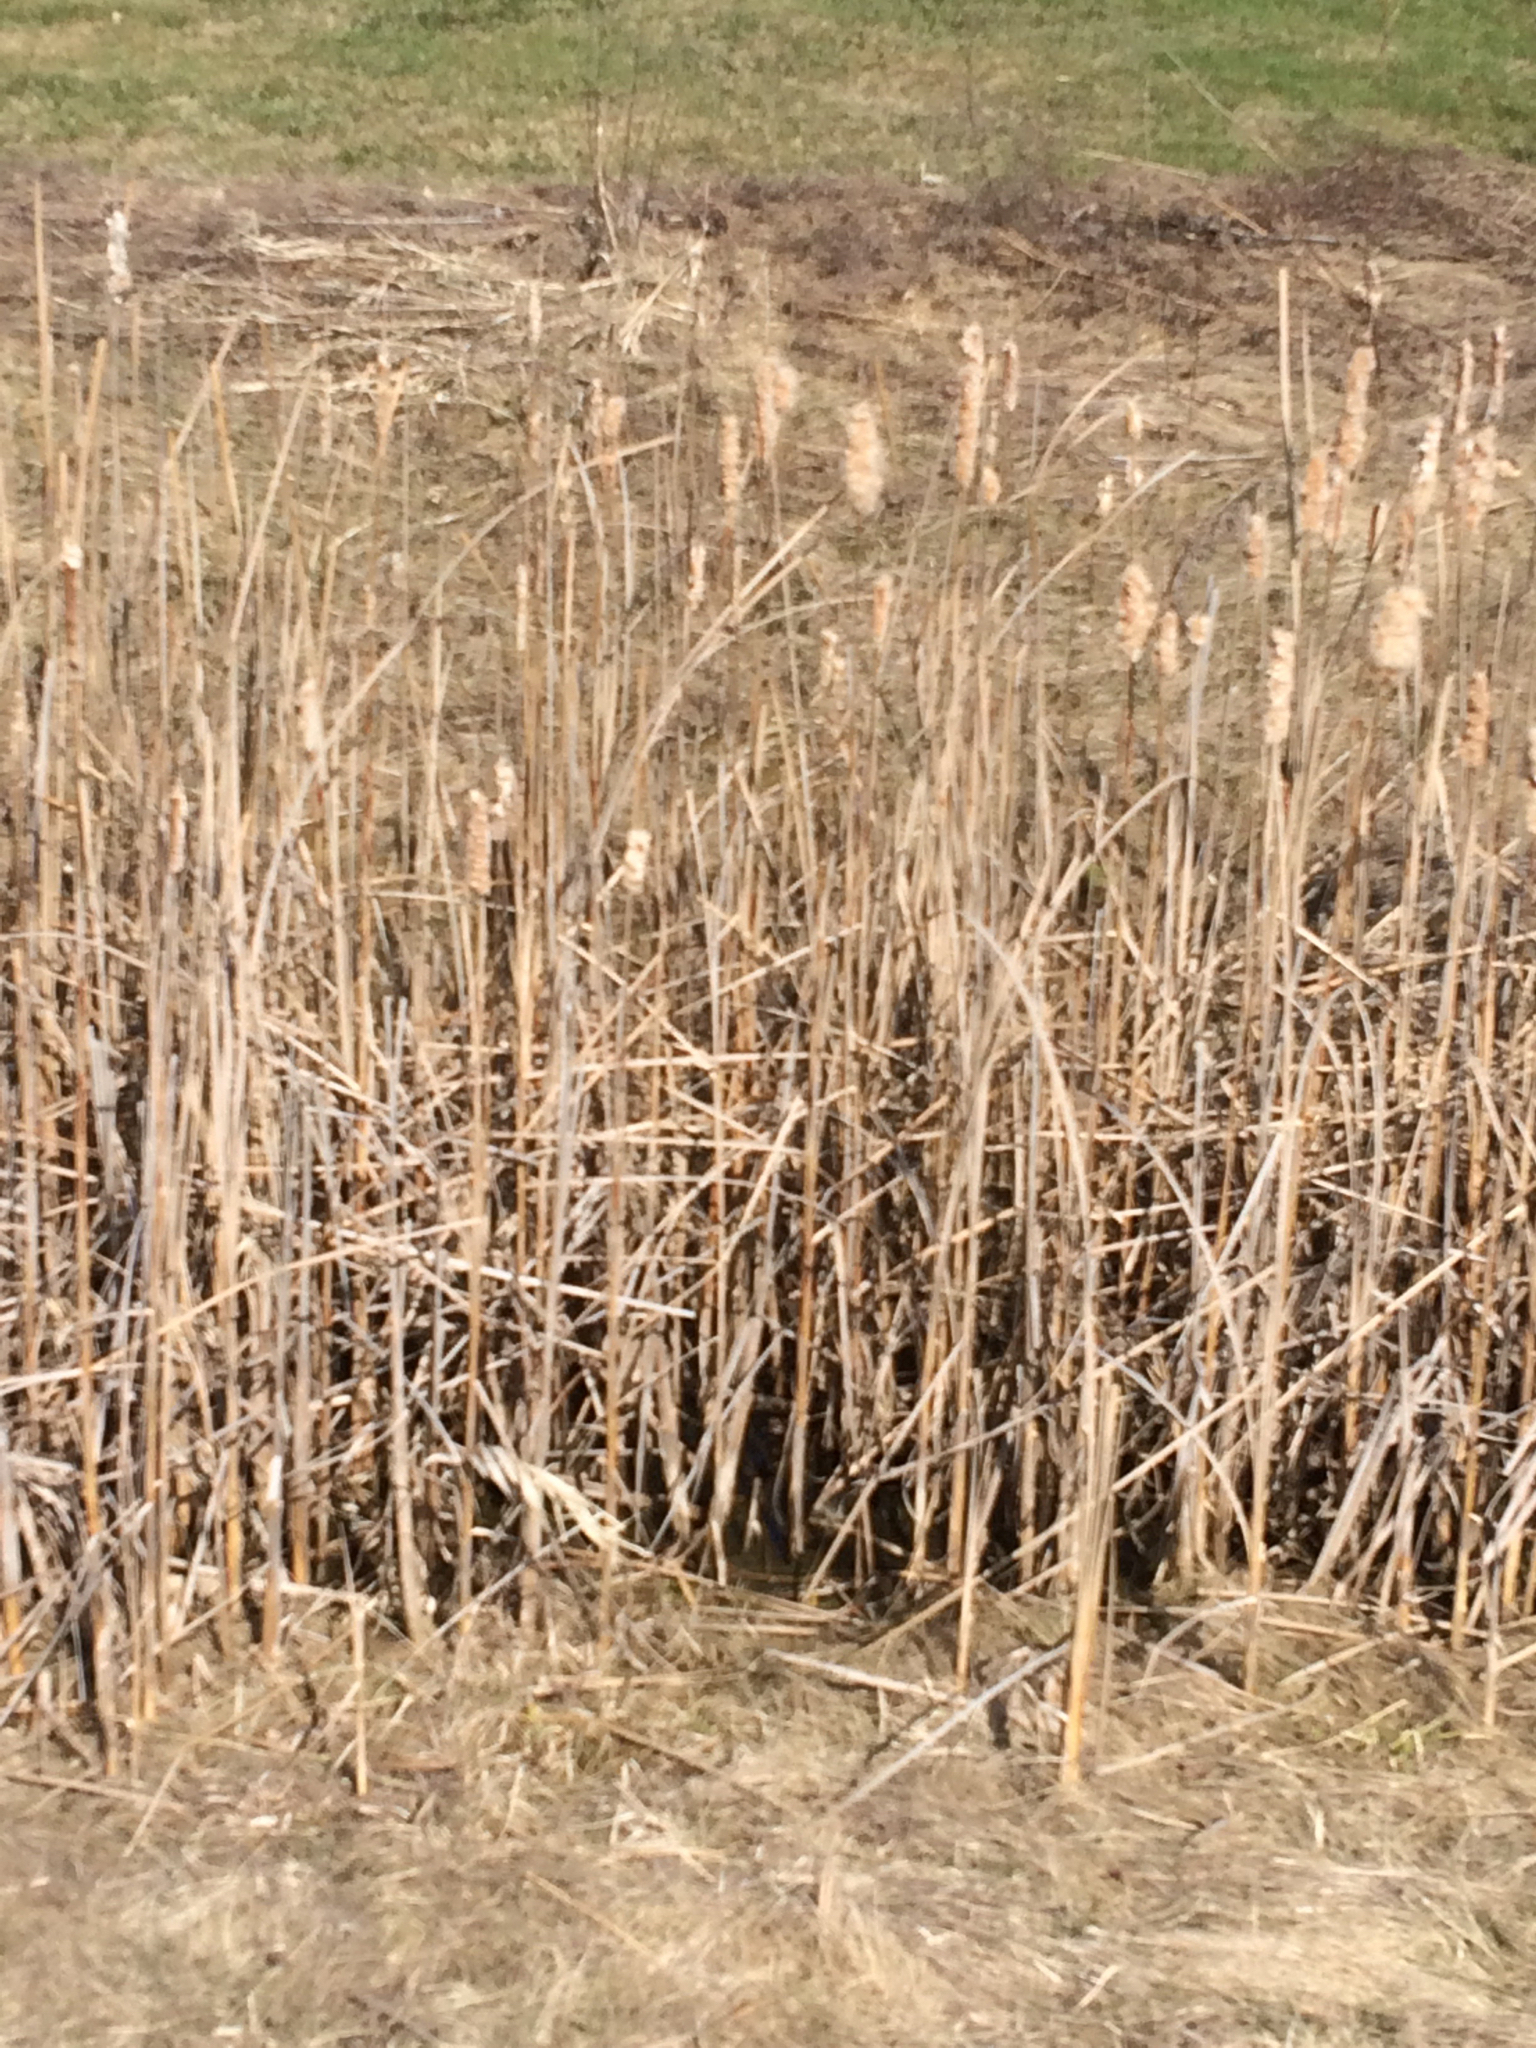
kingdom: Plantae
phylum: Tracheophyta
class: Liliopsida
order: Poales
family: Typhaceae
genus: Typha
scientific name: Typha
